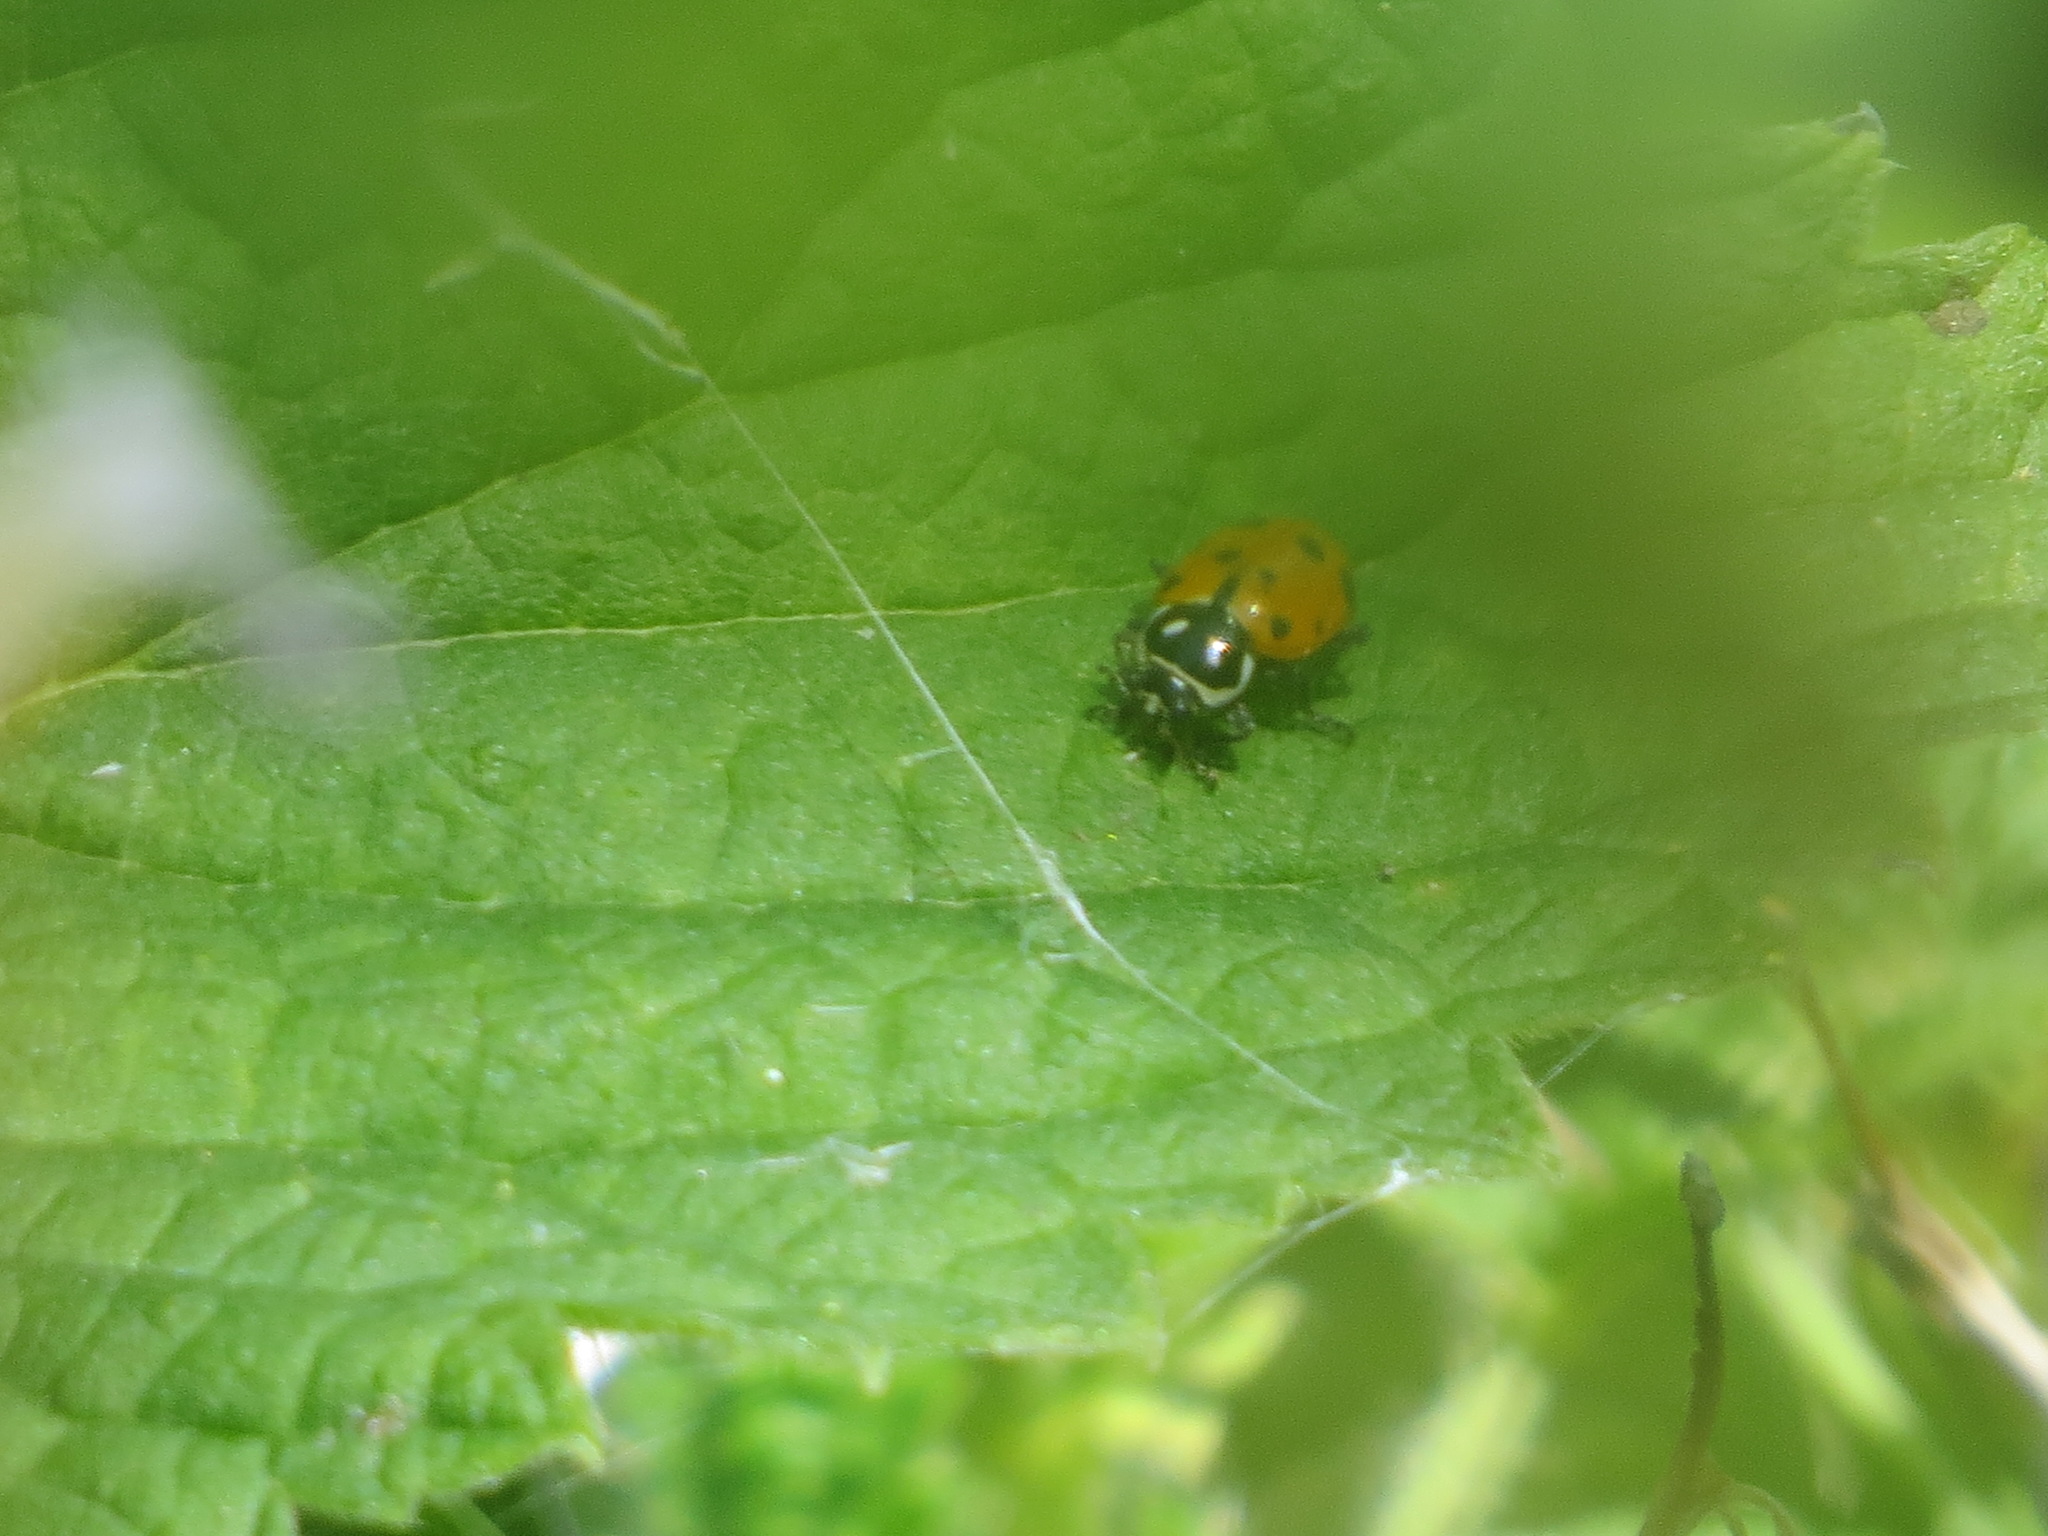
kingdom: Animalia
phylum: Arthropoda
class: Insecta
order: Coleoptera
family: Coccinellidae
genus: Hippodamia
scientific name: Hippodamia convergens
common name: Convergent lady beetle
